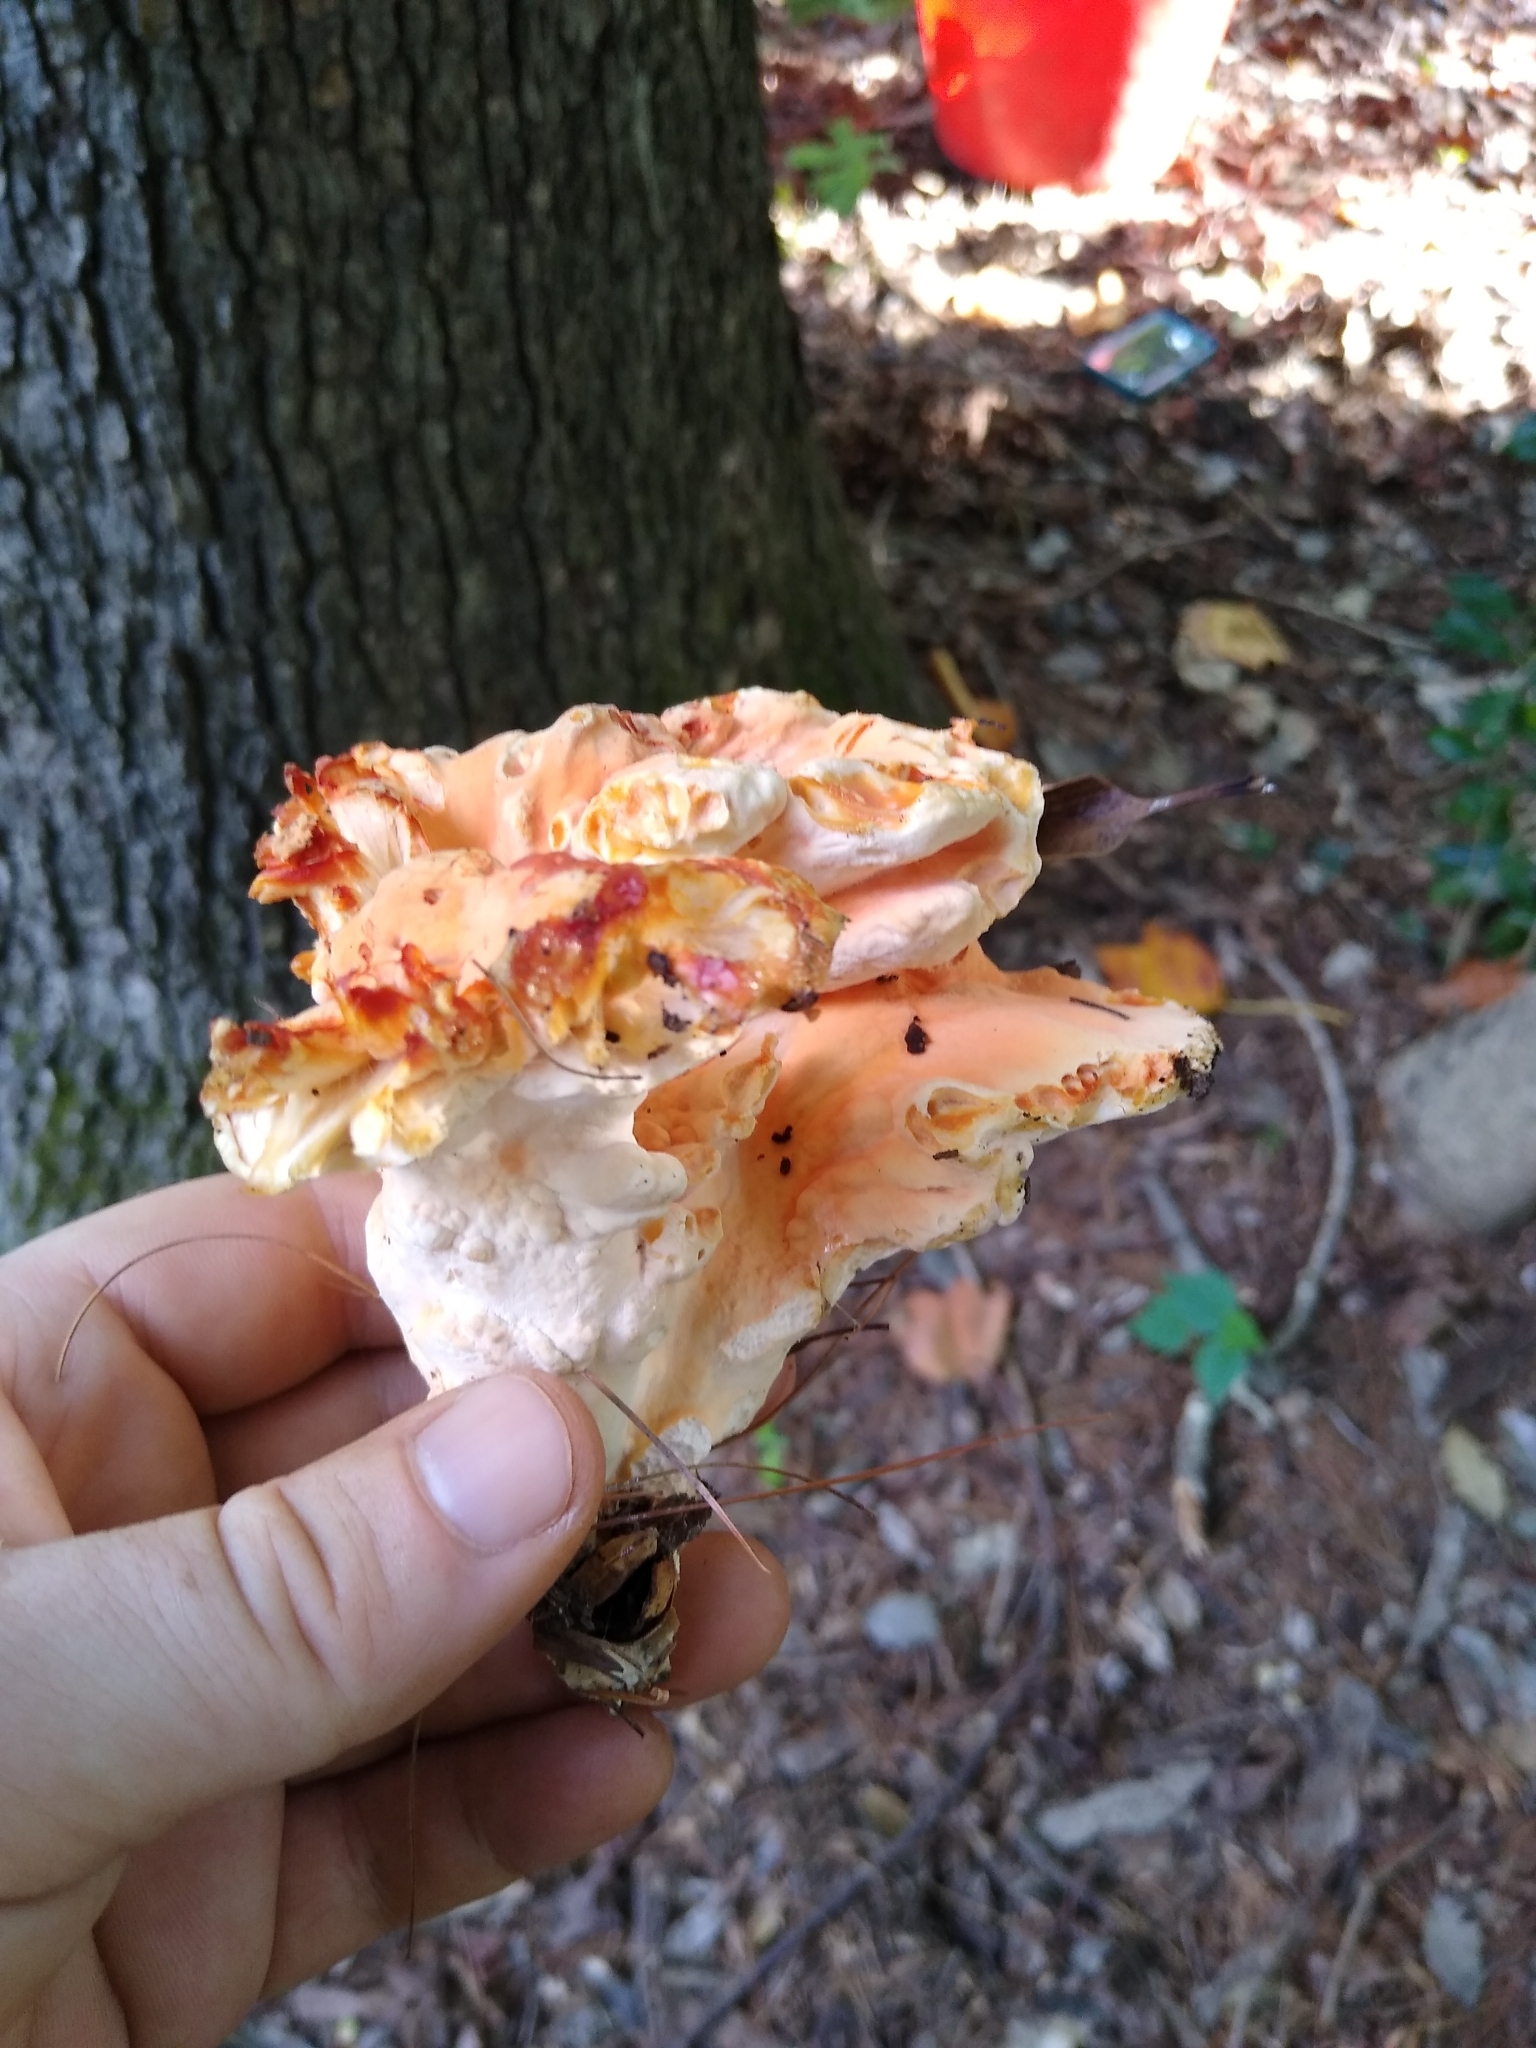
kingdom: Fungi
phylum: Basidiomycota
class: Agaricomycetes
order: Polyporales
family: Laetiporaceae
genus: Laetiporus
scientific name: Laetiporus sulphureus
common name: Chicken of the woods
